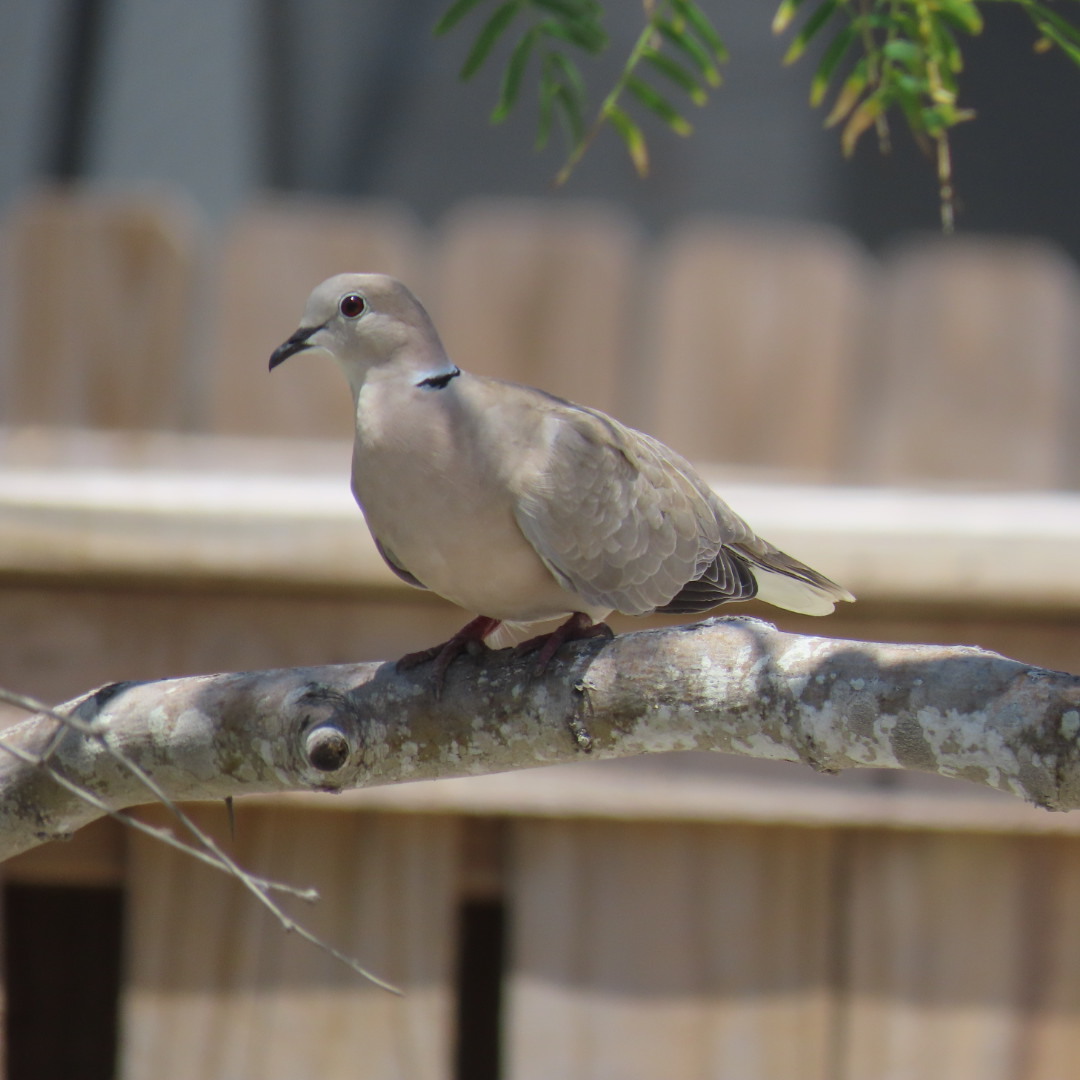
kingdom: Animalia
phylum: Chordata
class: Aves
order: Columbiformes
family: Columbidae
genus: Streptopelia
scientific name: Streptopelia decaocto
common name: Eurasian collared dove
